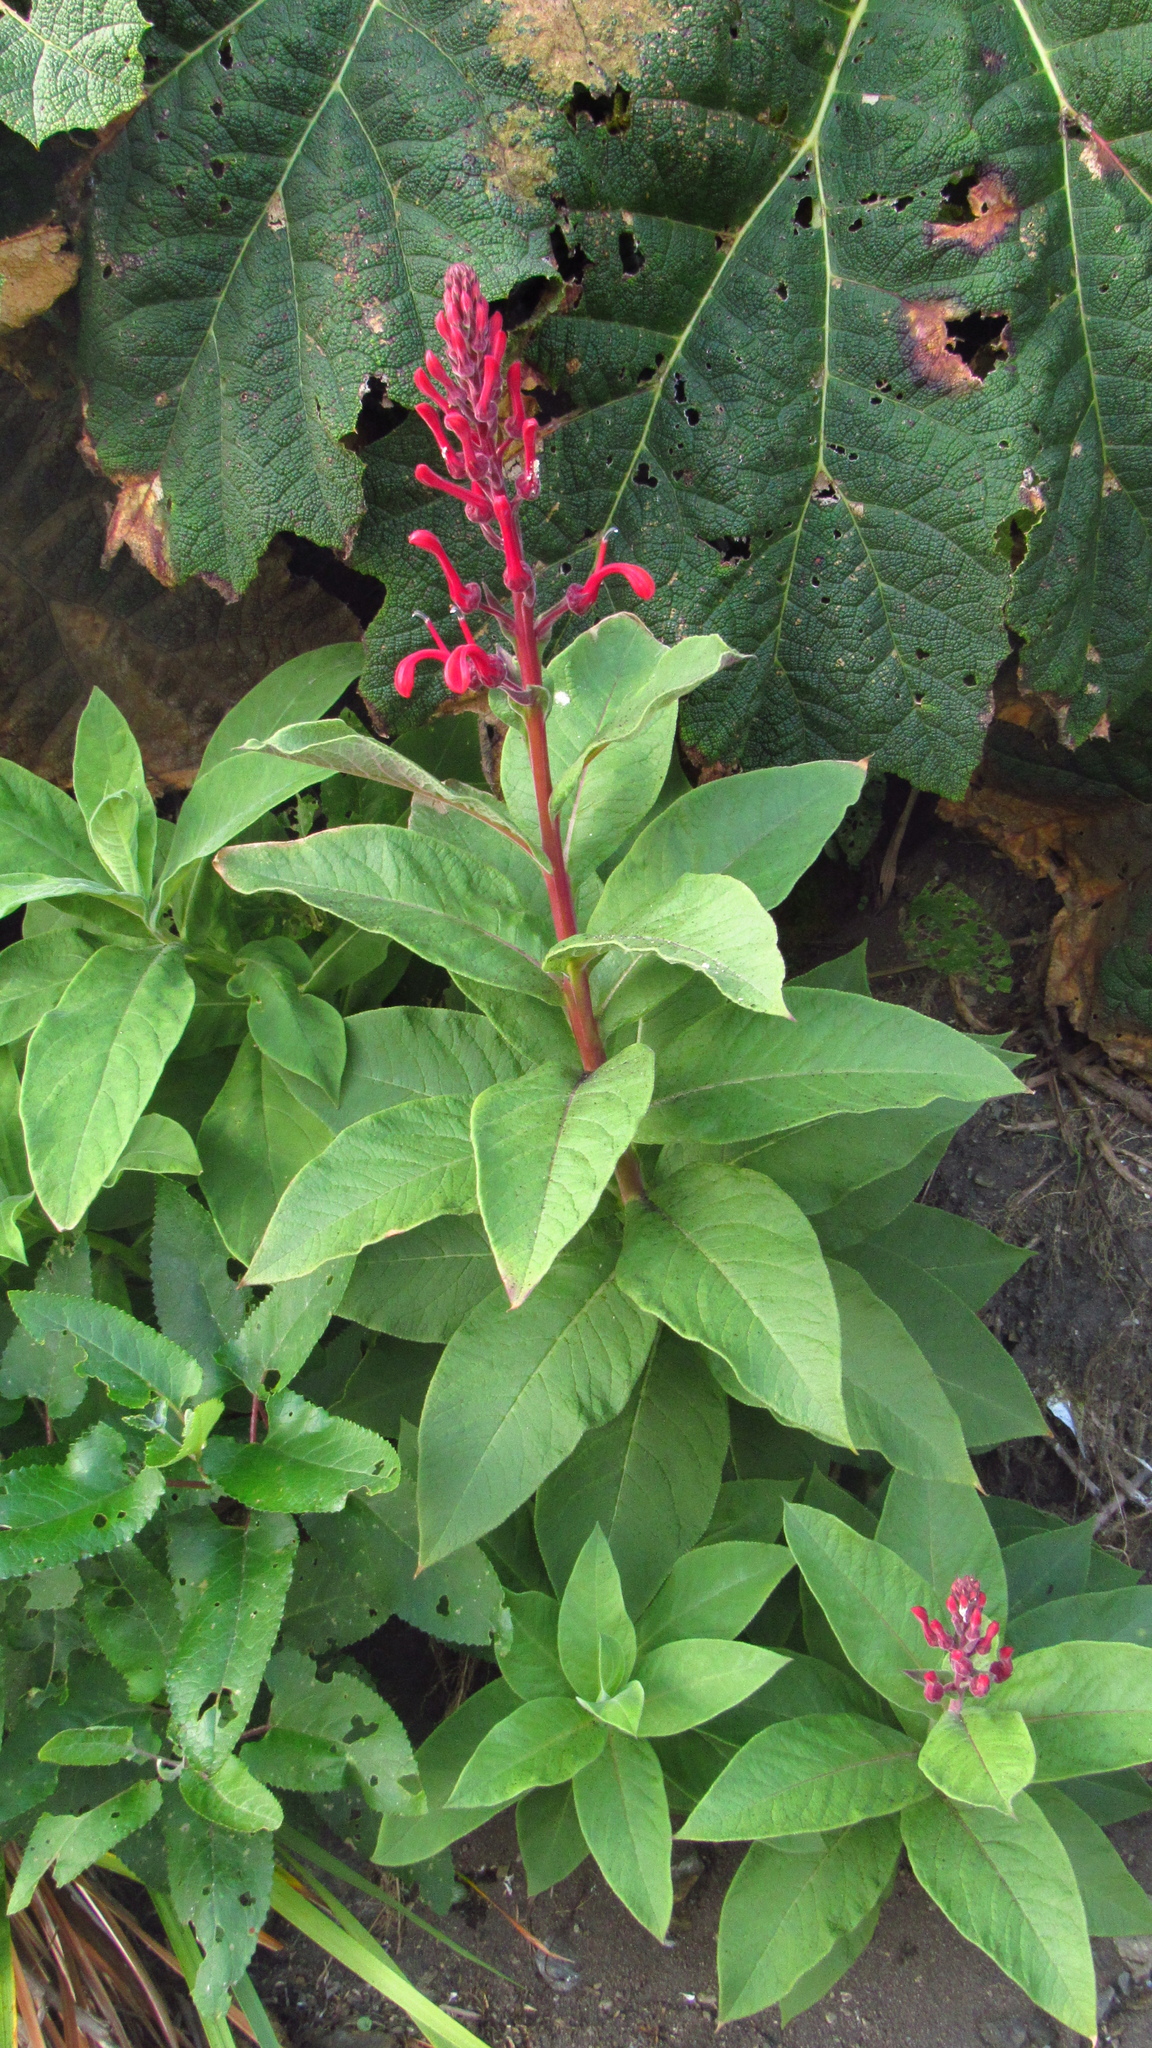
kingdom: Plantae
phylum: Tracheophyta
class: Magnoliopsida
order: Asterales
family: Campanulaceae
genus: Lobelia
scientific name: Lobelia tupa
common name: Devil's-tobacco
